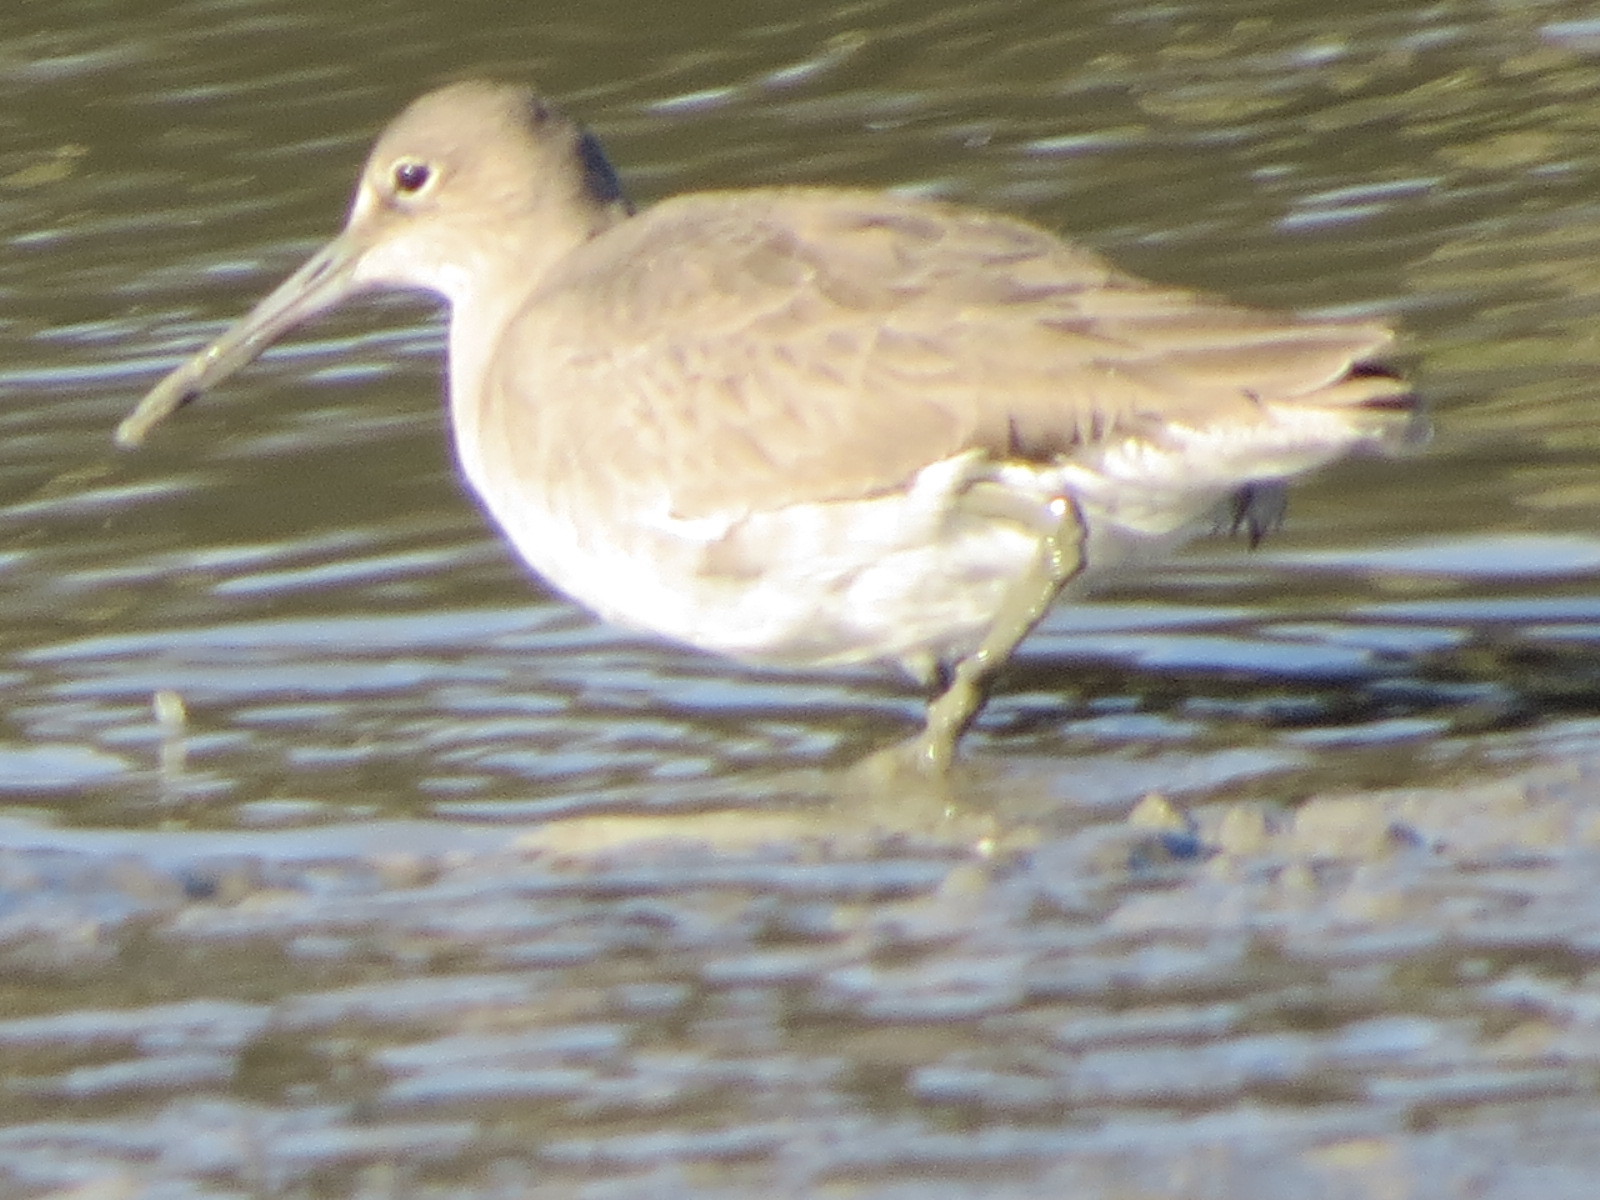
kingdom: Animalia
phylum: Chordata
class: Aves
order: Charadriiformes
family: Scolopacidae
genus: Tringa
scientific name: Tringa semipalmata
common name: Willet
